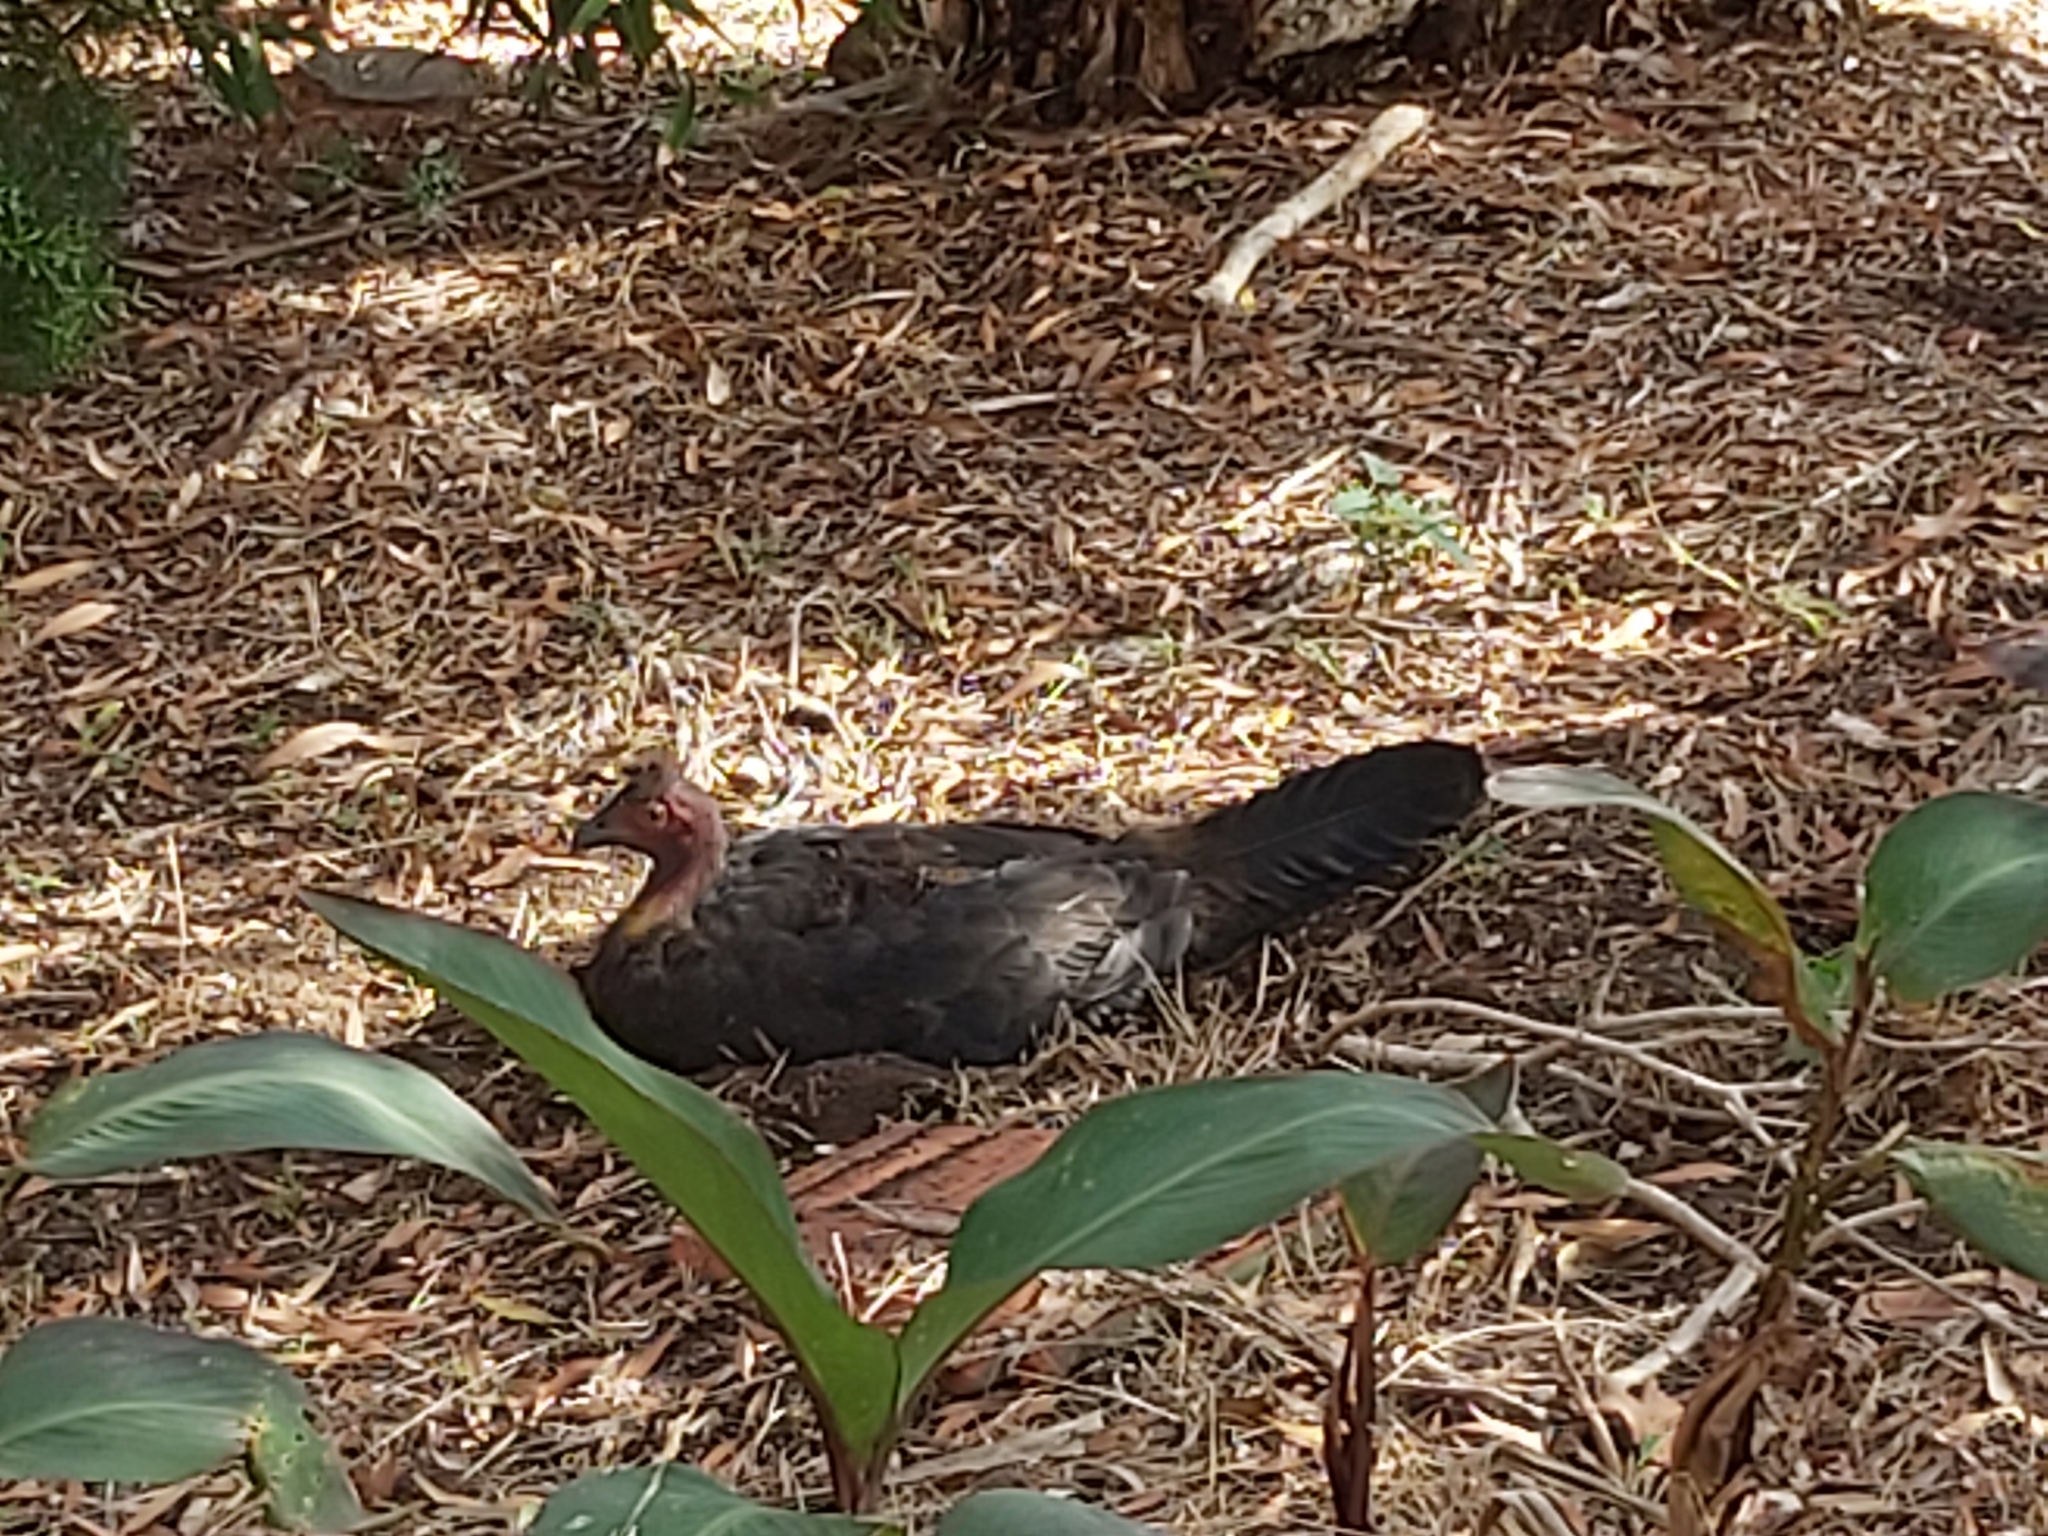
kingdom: Animalia
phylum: Chordata
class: Aves
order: Galliformes
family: Megapodiidae
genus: Alectura
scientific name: Alectura lathami
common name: Australian brushturkey
